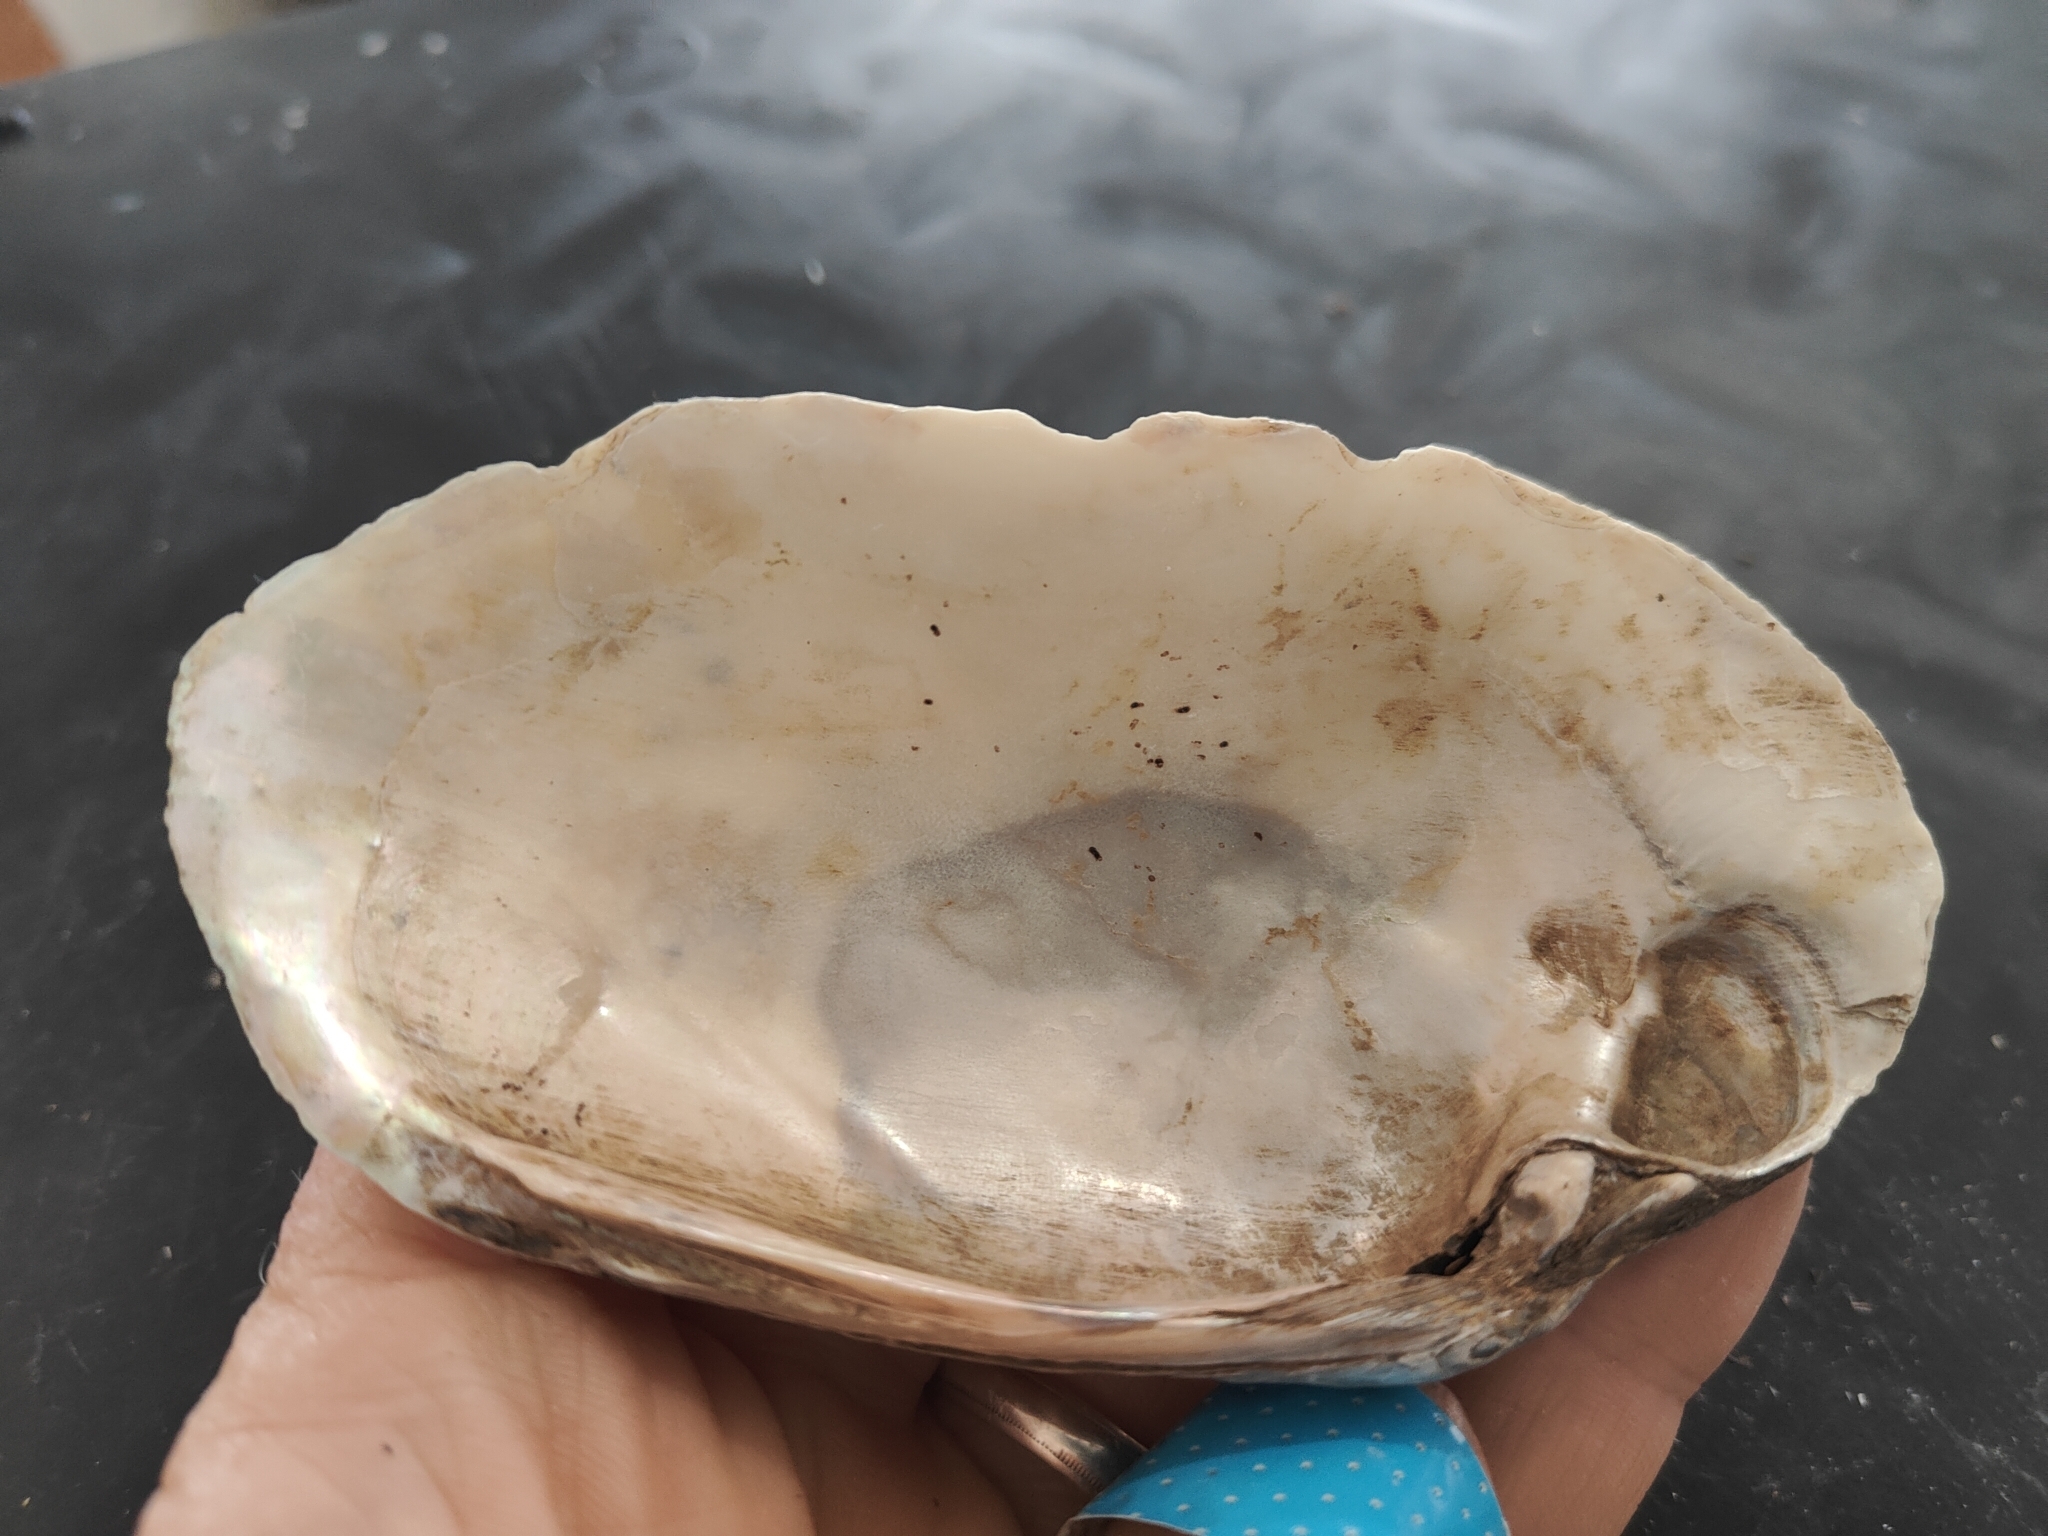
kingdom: Animalia
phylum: Mollusca
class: Bivalvia
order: Unionida
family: Unionidae
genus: Lampsilis
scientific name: Lampsilis siliquoidea
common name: Fatmucket
